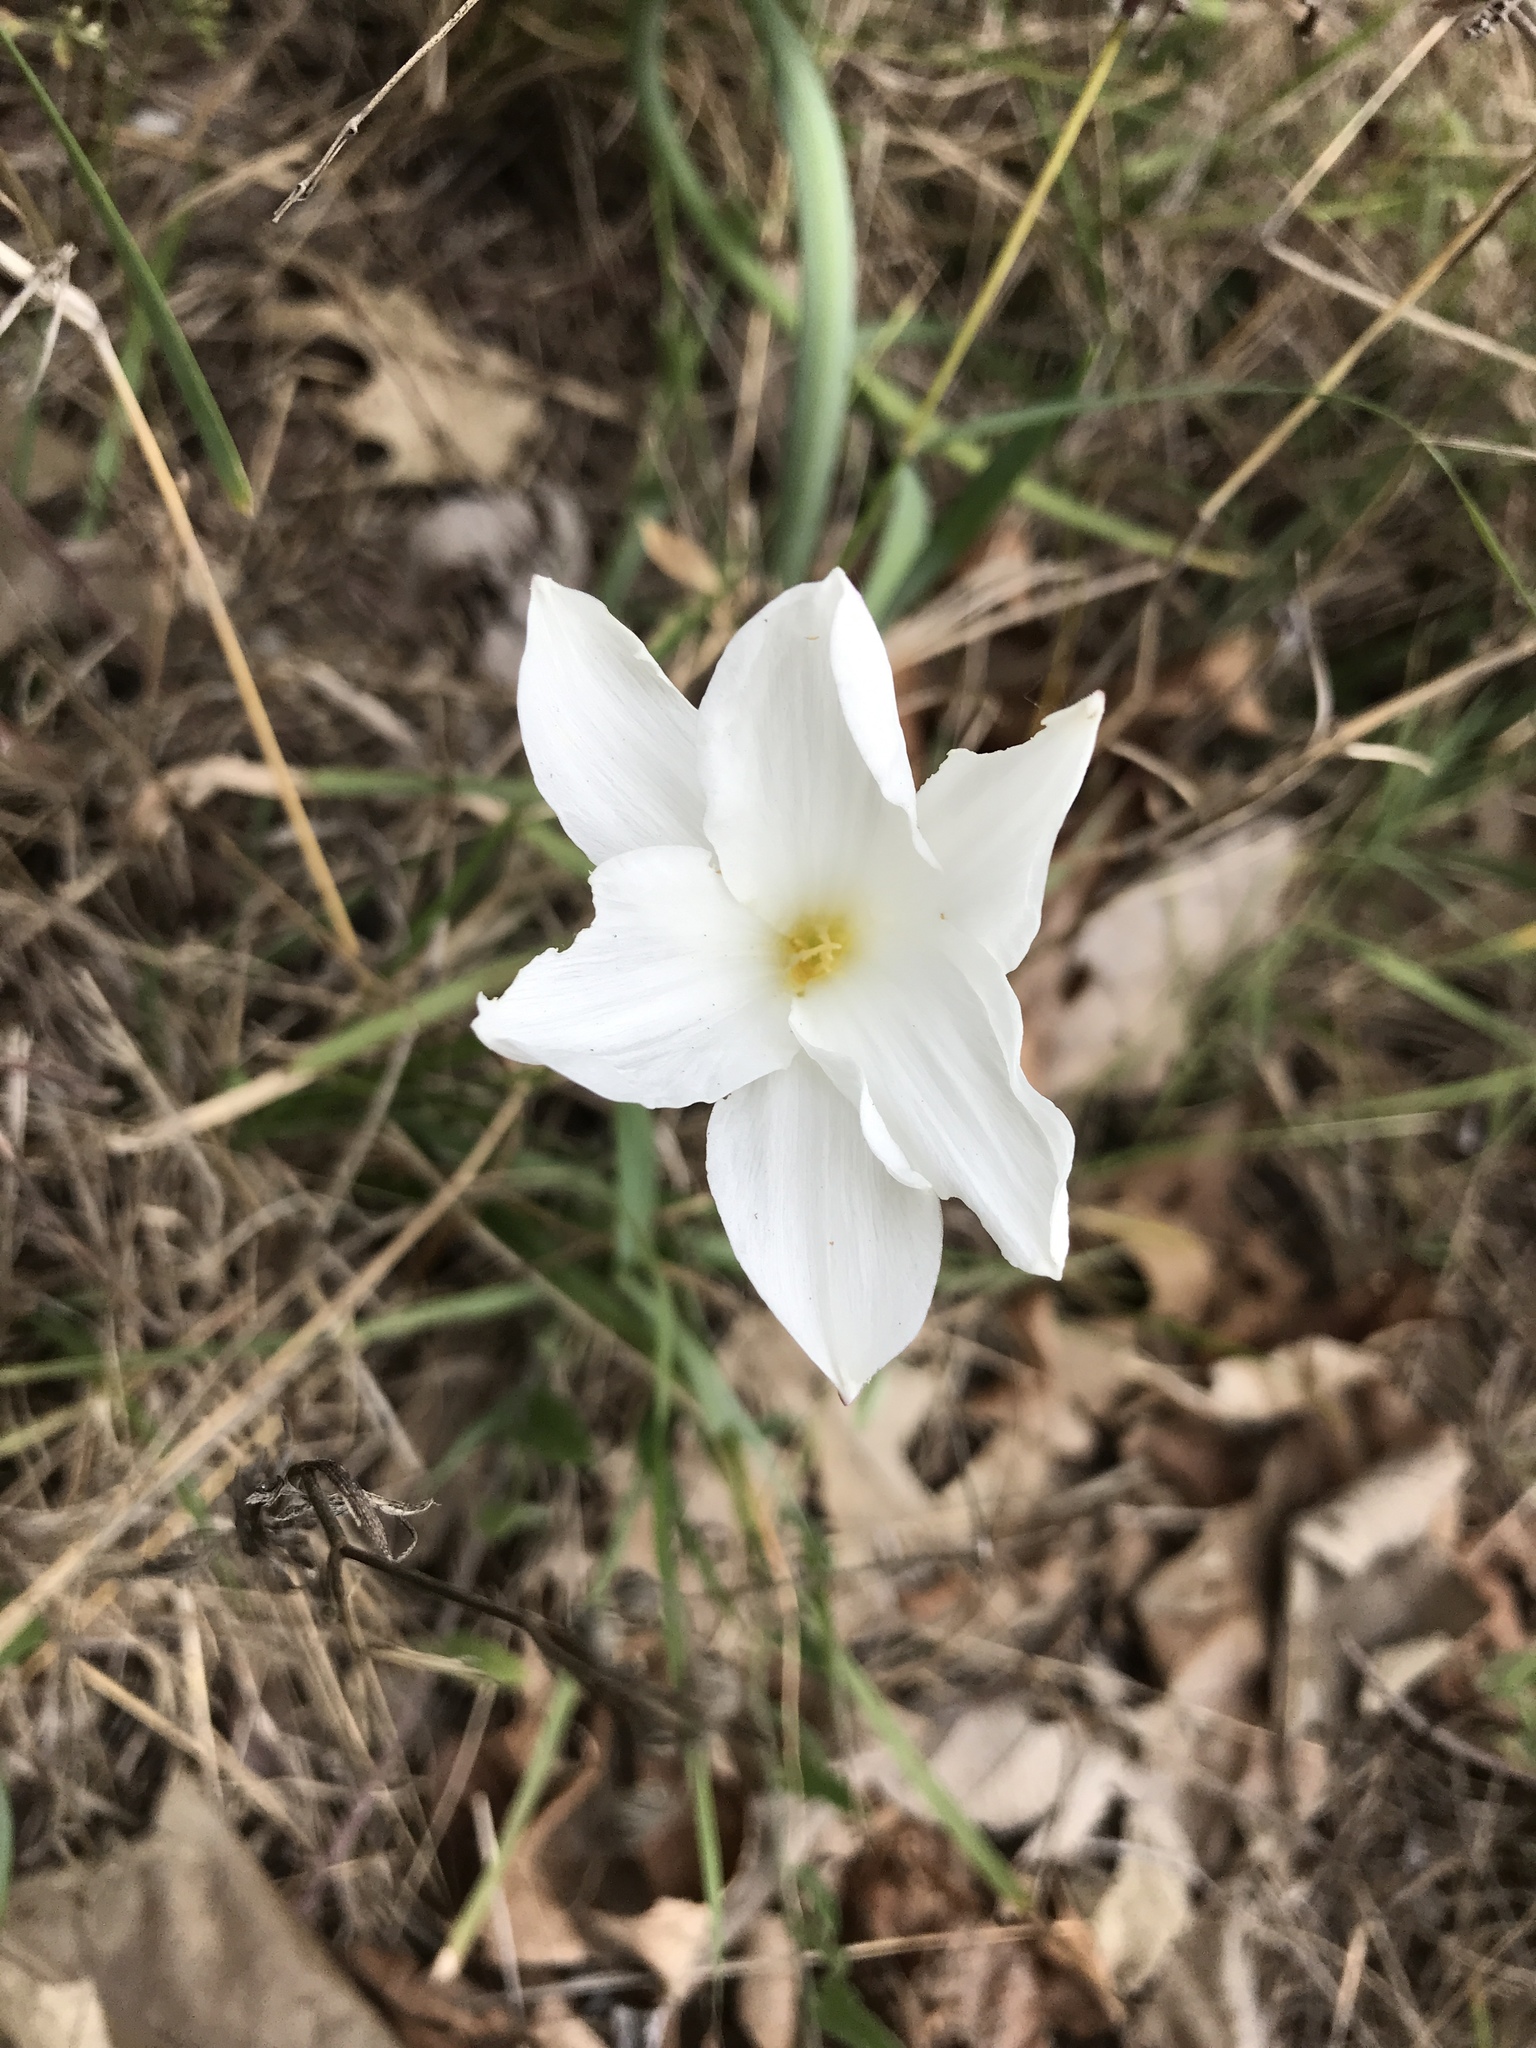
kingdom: Plantae
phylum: Tracheophyta
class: Liliopsida
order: Asparagales
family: Amaryllidaceae
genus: Zephyranthes
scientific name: Zephyranthes drummondii
